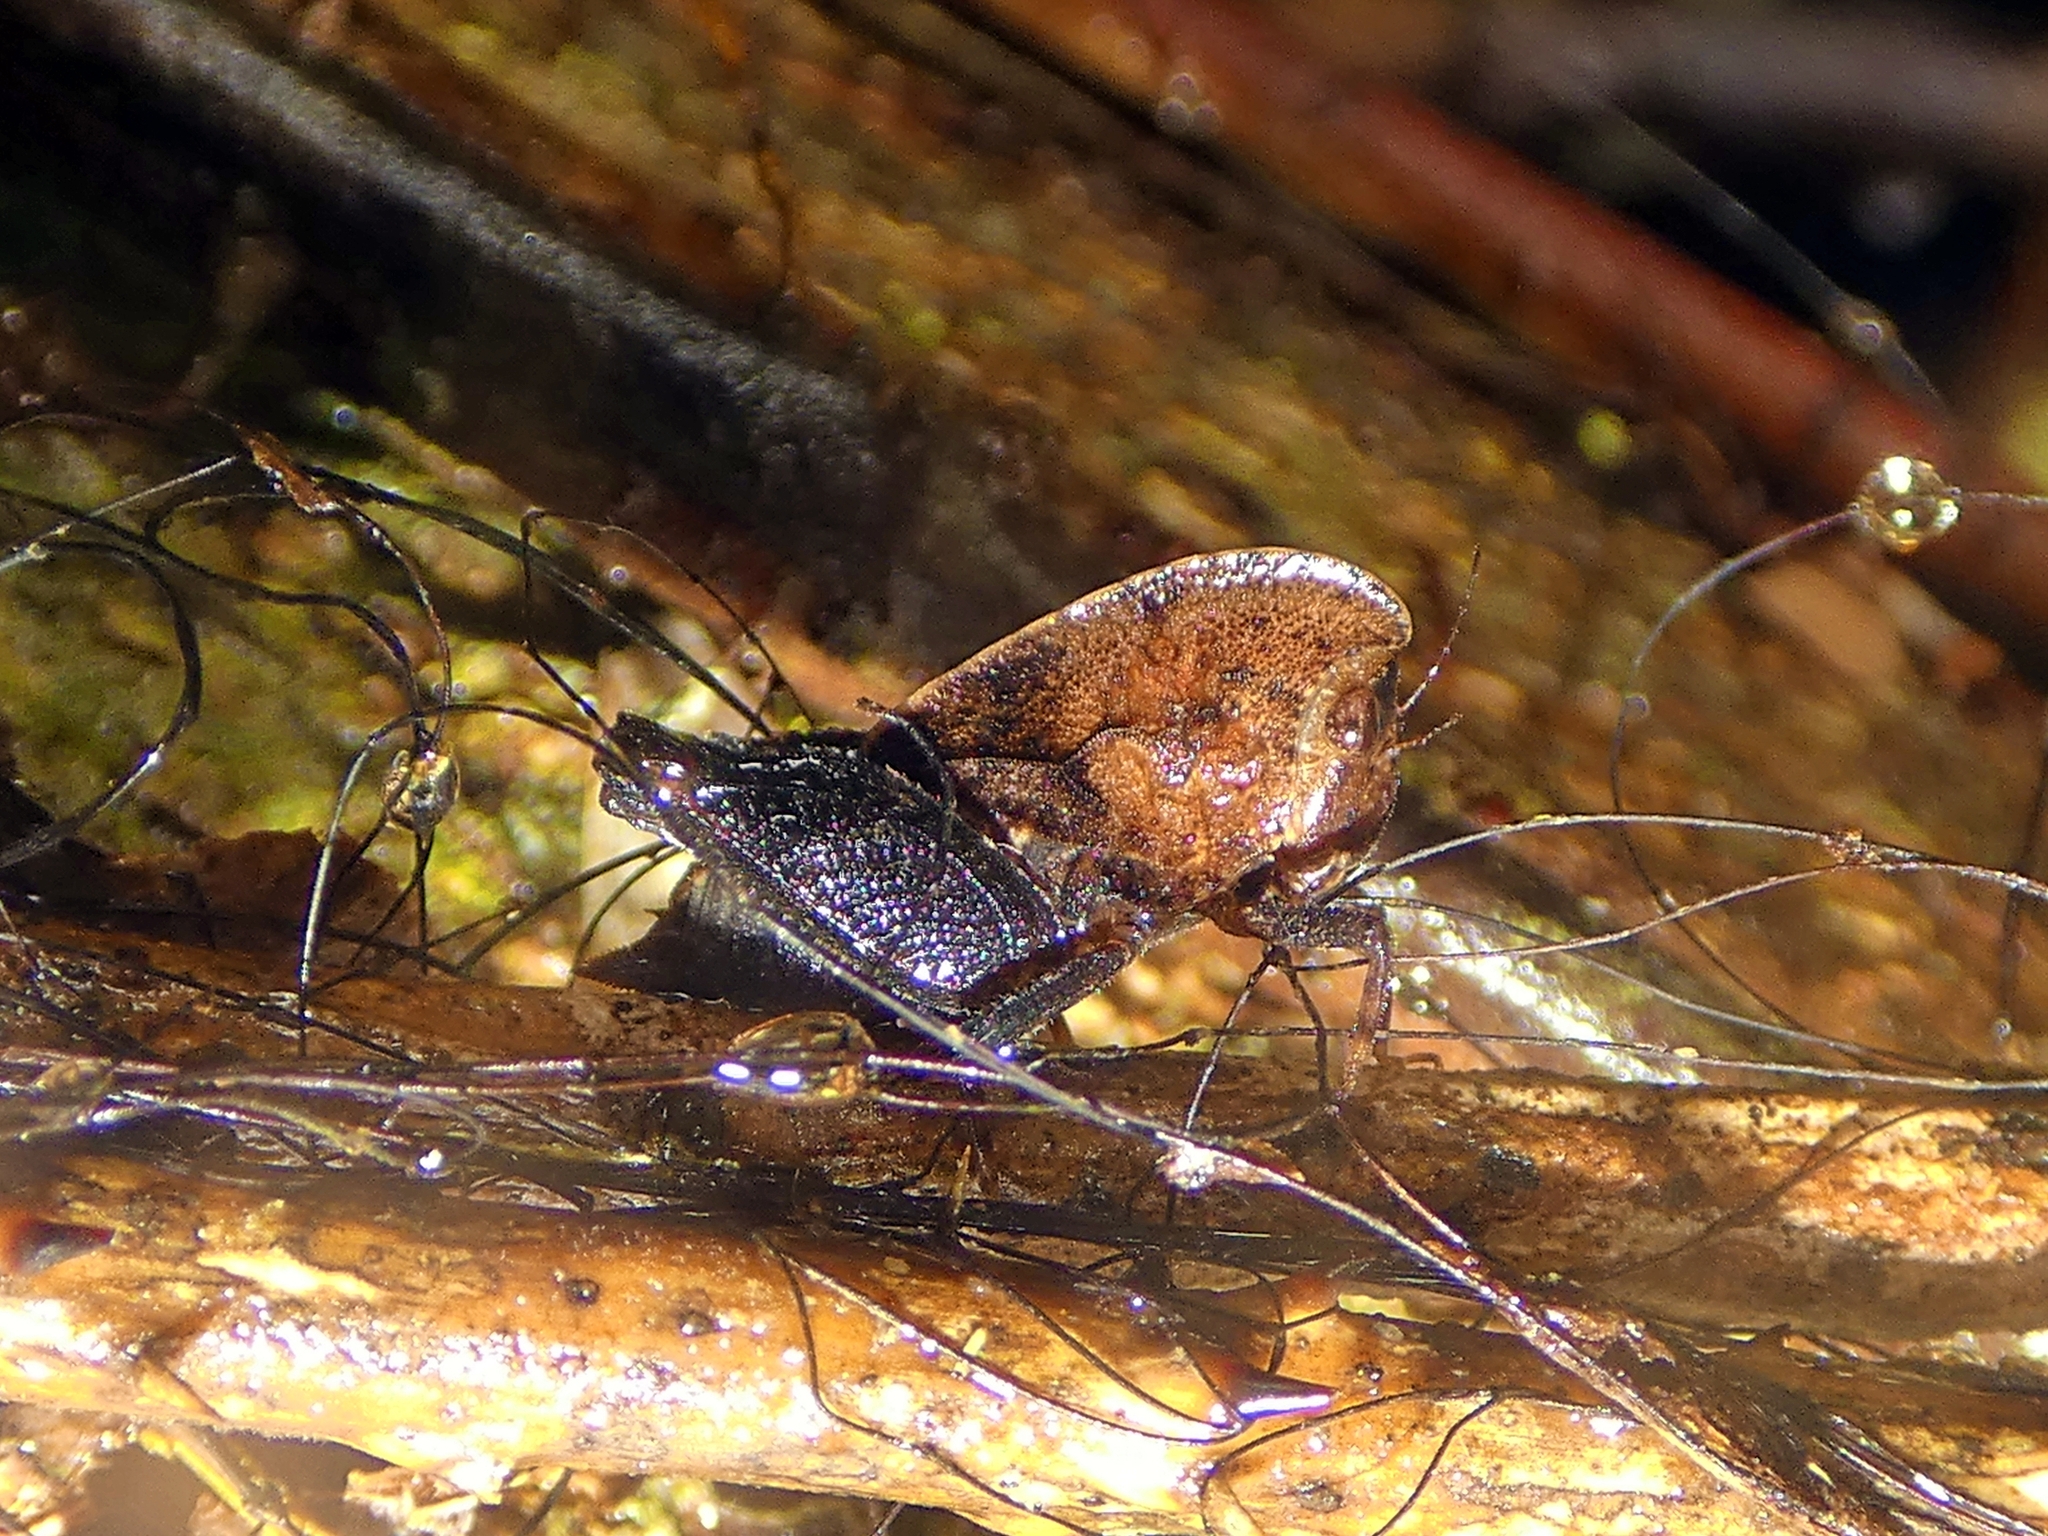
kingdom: Animalia
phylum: Arthropoda
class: Insecta
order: Orthoptera
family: Tetrigidae
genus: Selivinga
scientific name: Selivinga tribulata
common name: Tribulation helmed groundhopper
